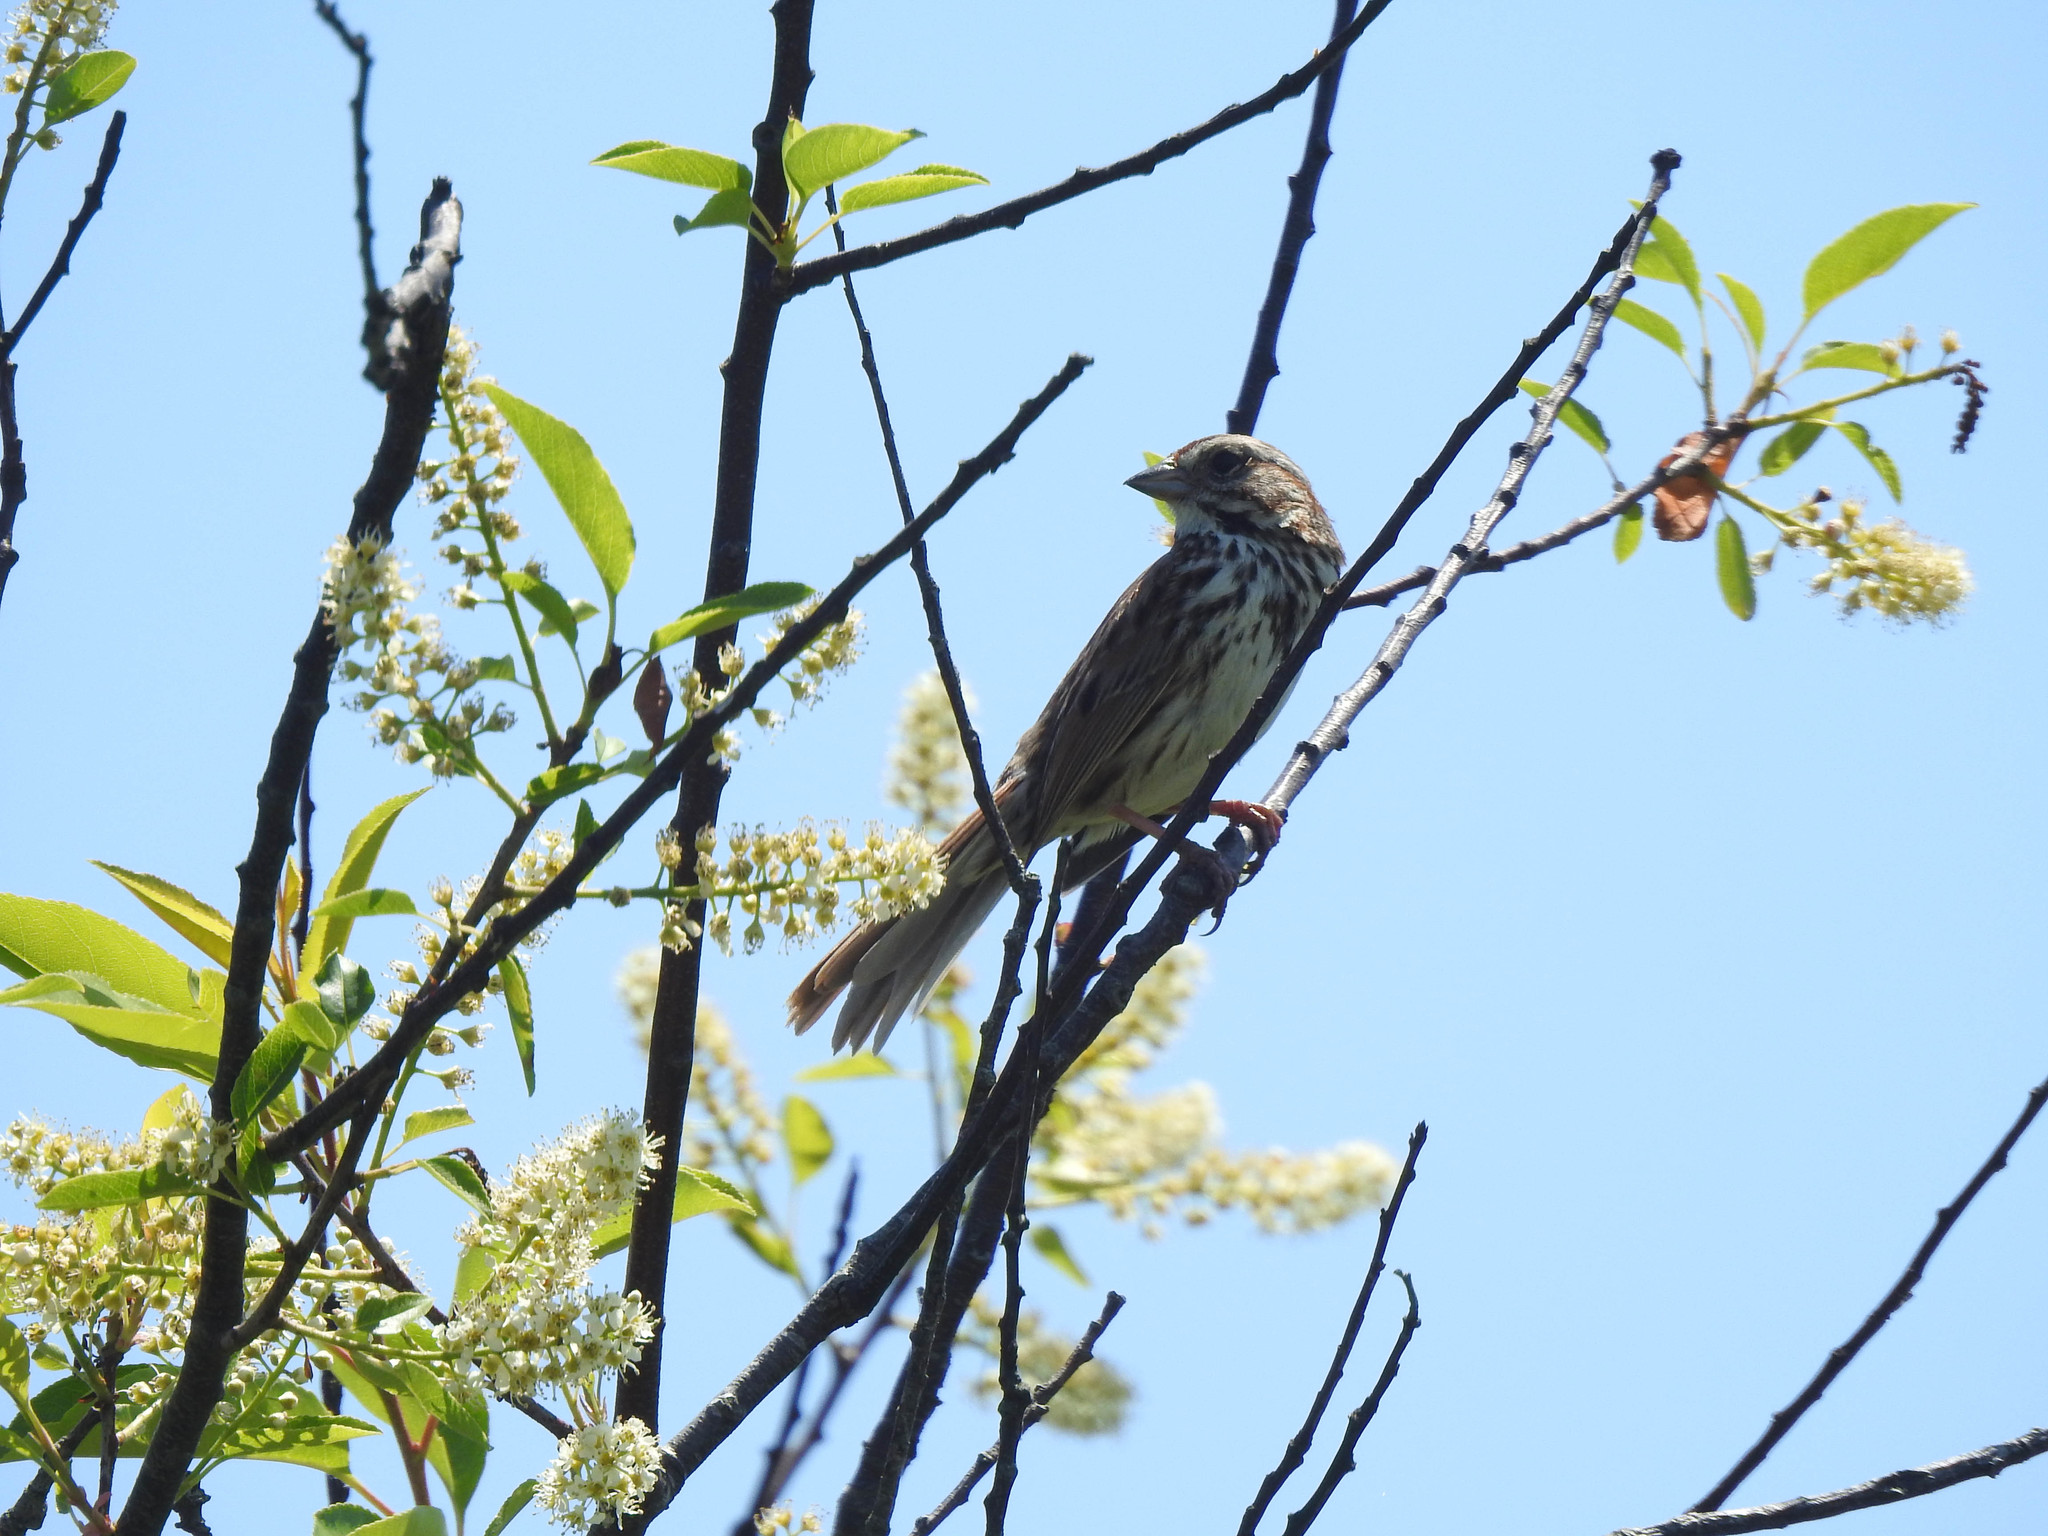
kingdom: Animalia
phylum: Chordata
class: Aves
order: Passeriformes
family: Passerellidae
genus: Melospiza
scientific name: Melospiza melodia
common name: Song sparrow
